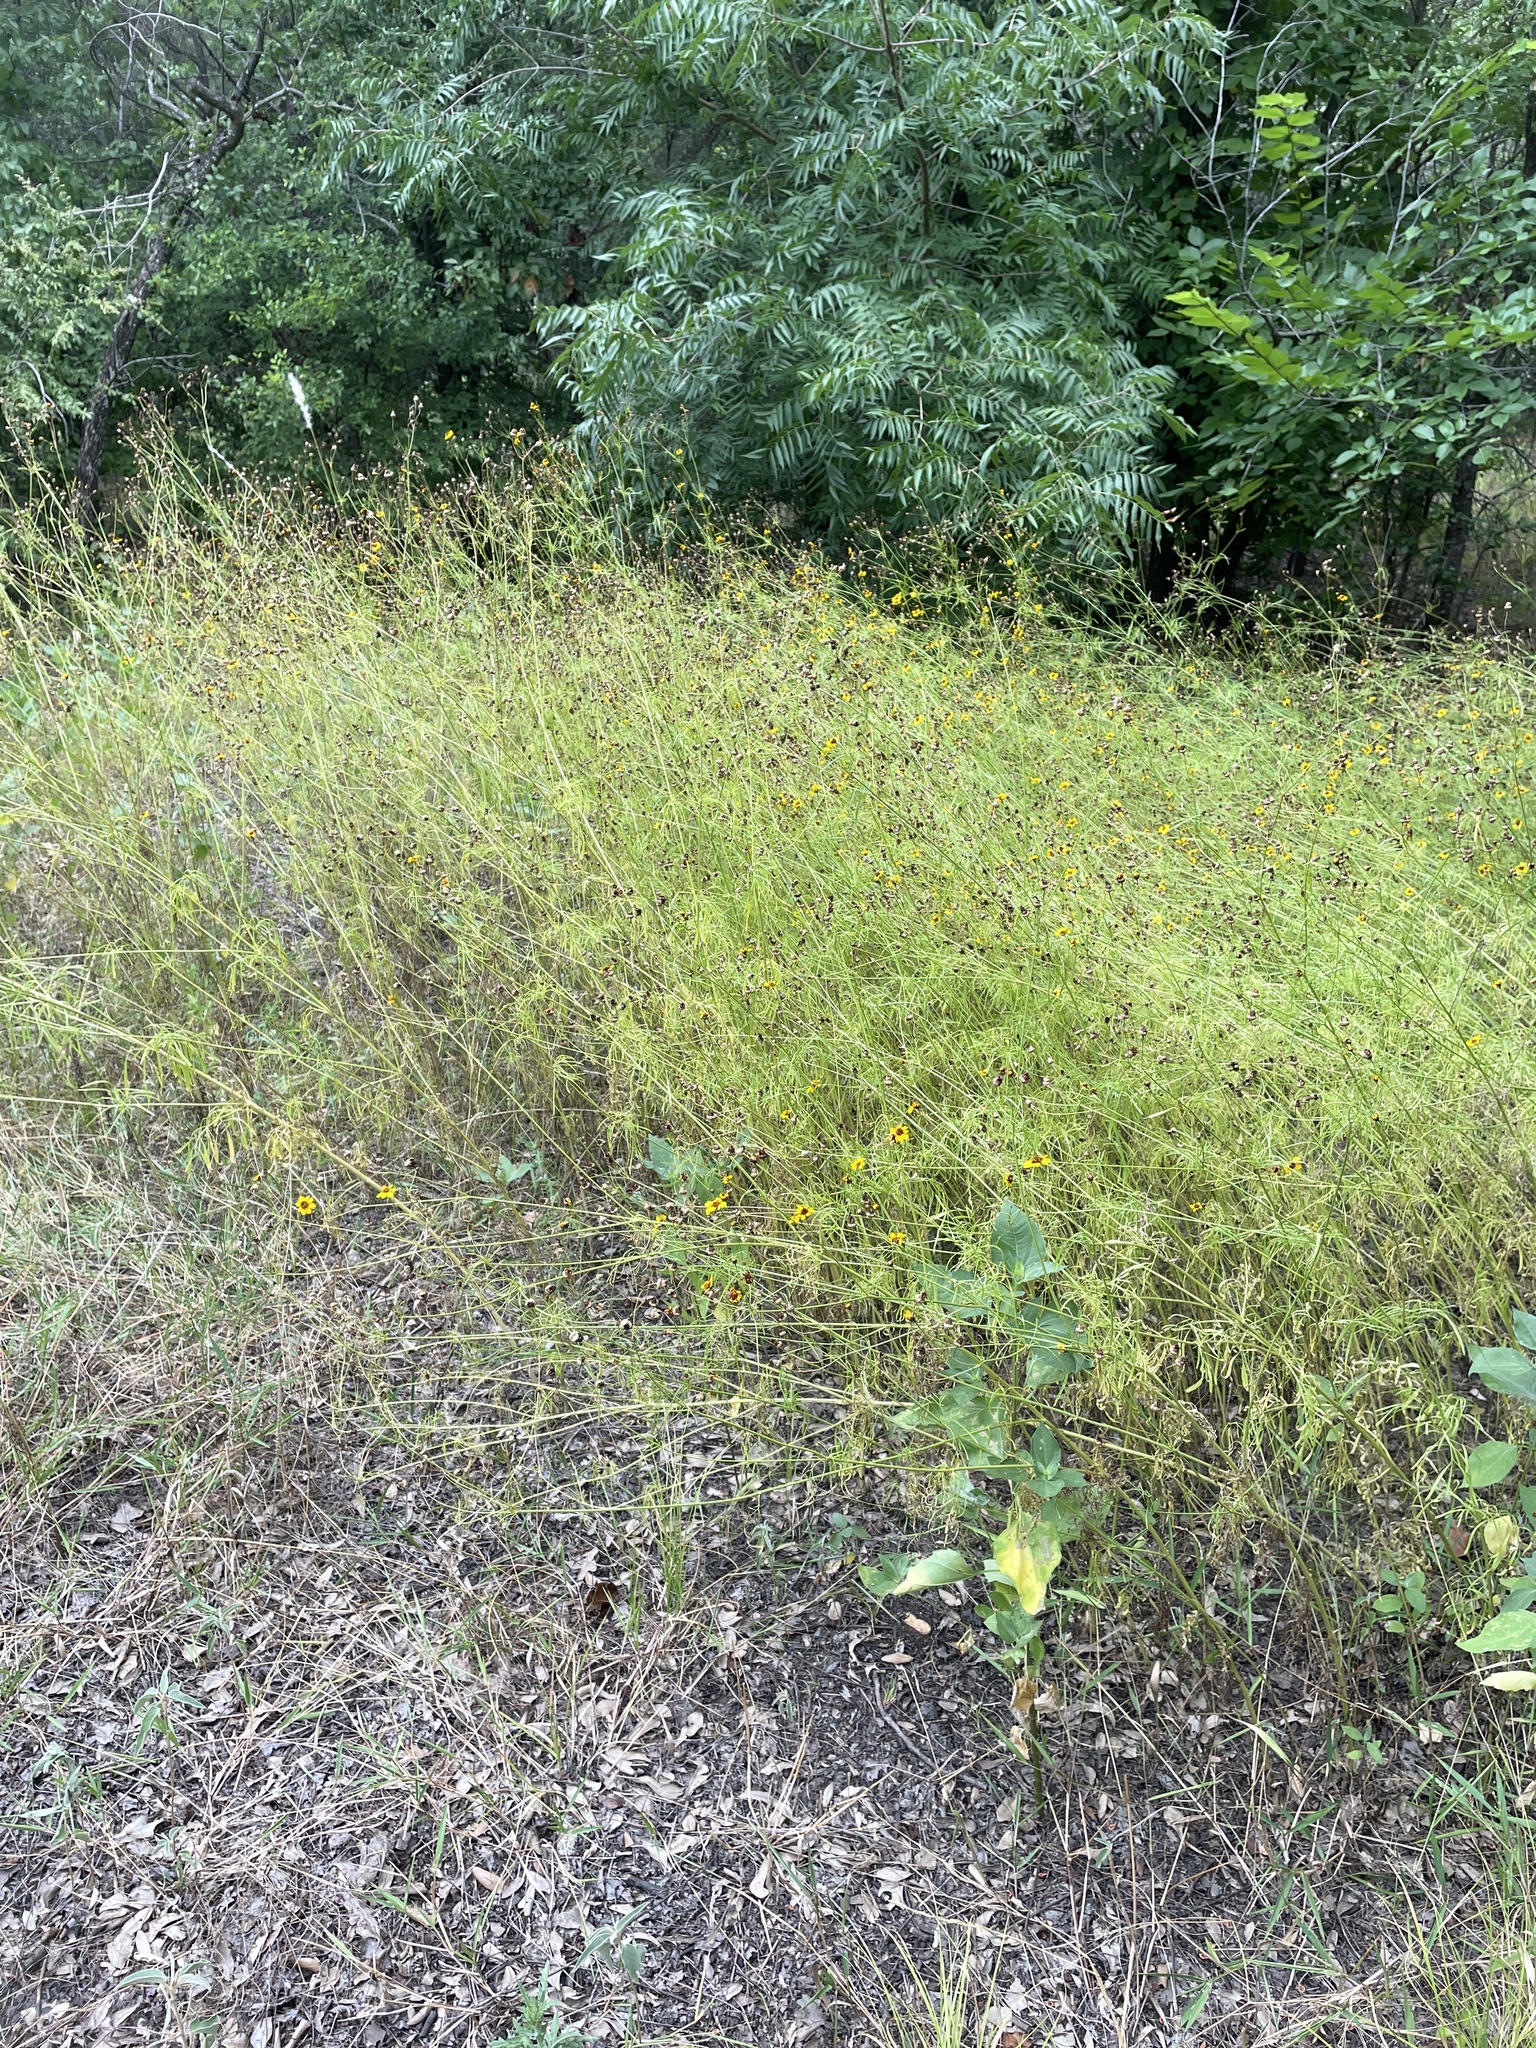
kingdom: Plantae
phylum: Tracheophyta
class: Magnoliopsida
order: Asterales
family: Asteraceae
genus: Coreopsis
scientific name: Coreopsis tinctoria
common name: Garden tickseed
